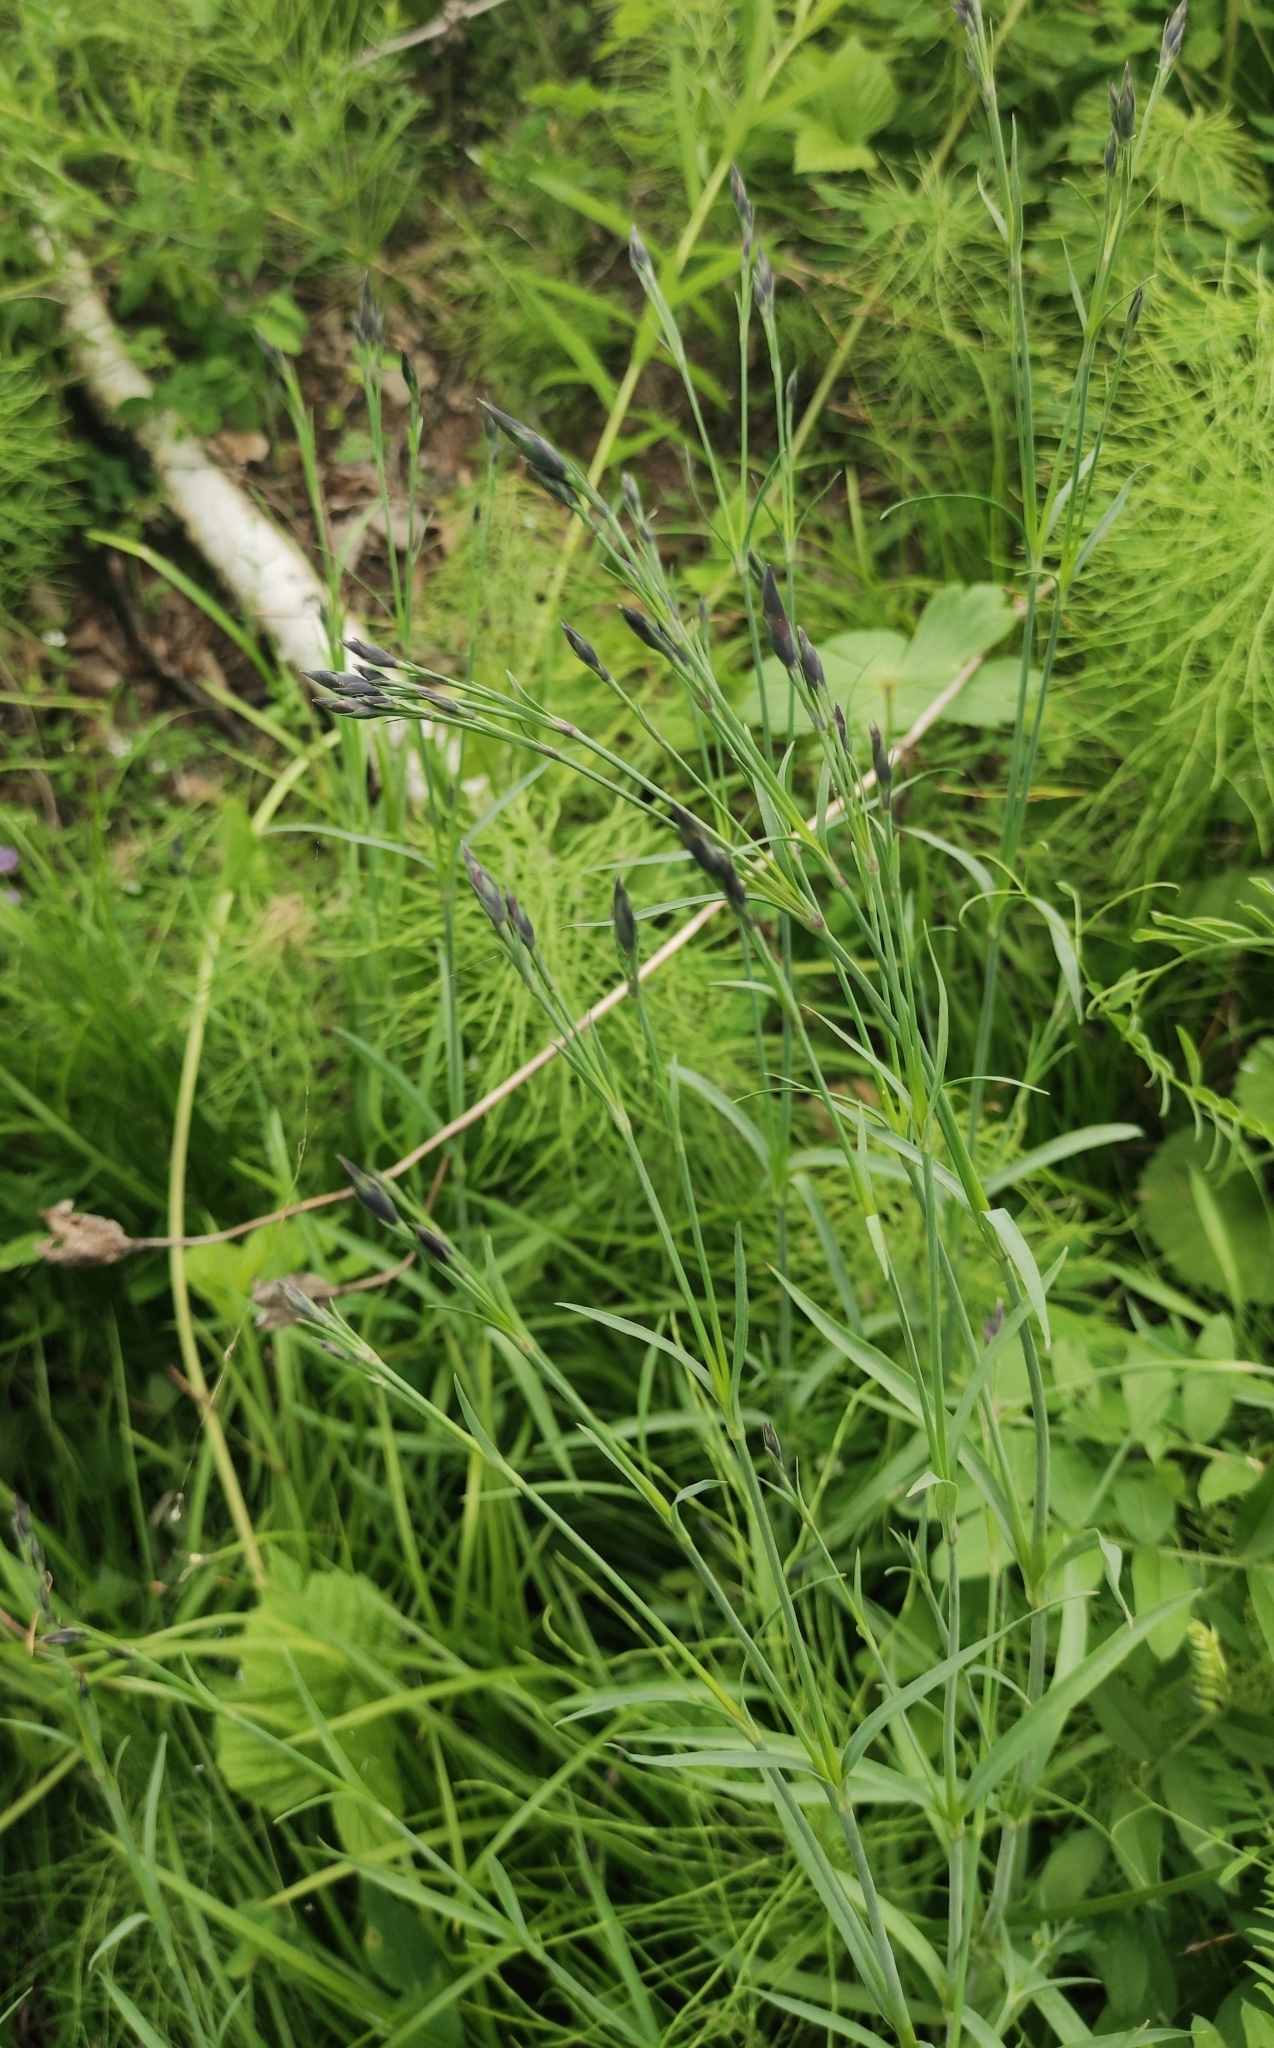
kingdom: Plantae
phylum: Tracheophyta
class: Magnoliopsida
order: Caryophyllales
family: Caryophyllaceae
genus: Dianthus
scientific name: Dianthus superbus
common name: Fringed pink
